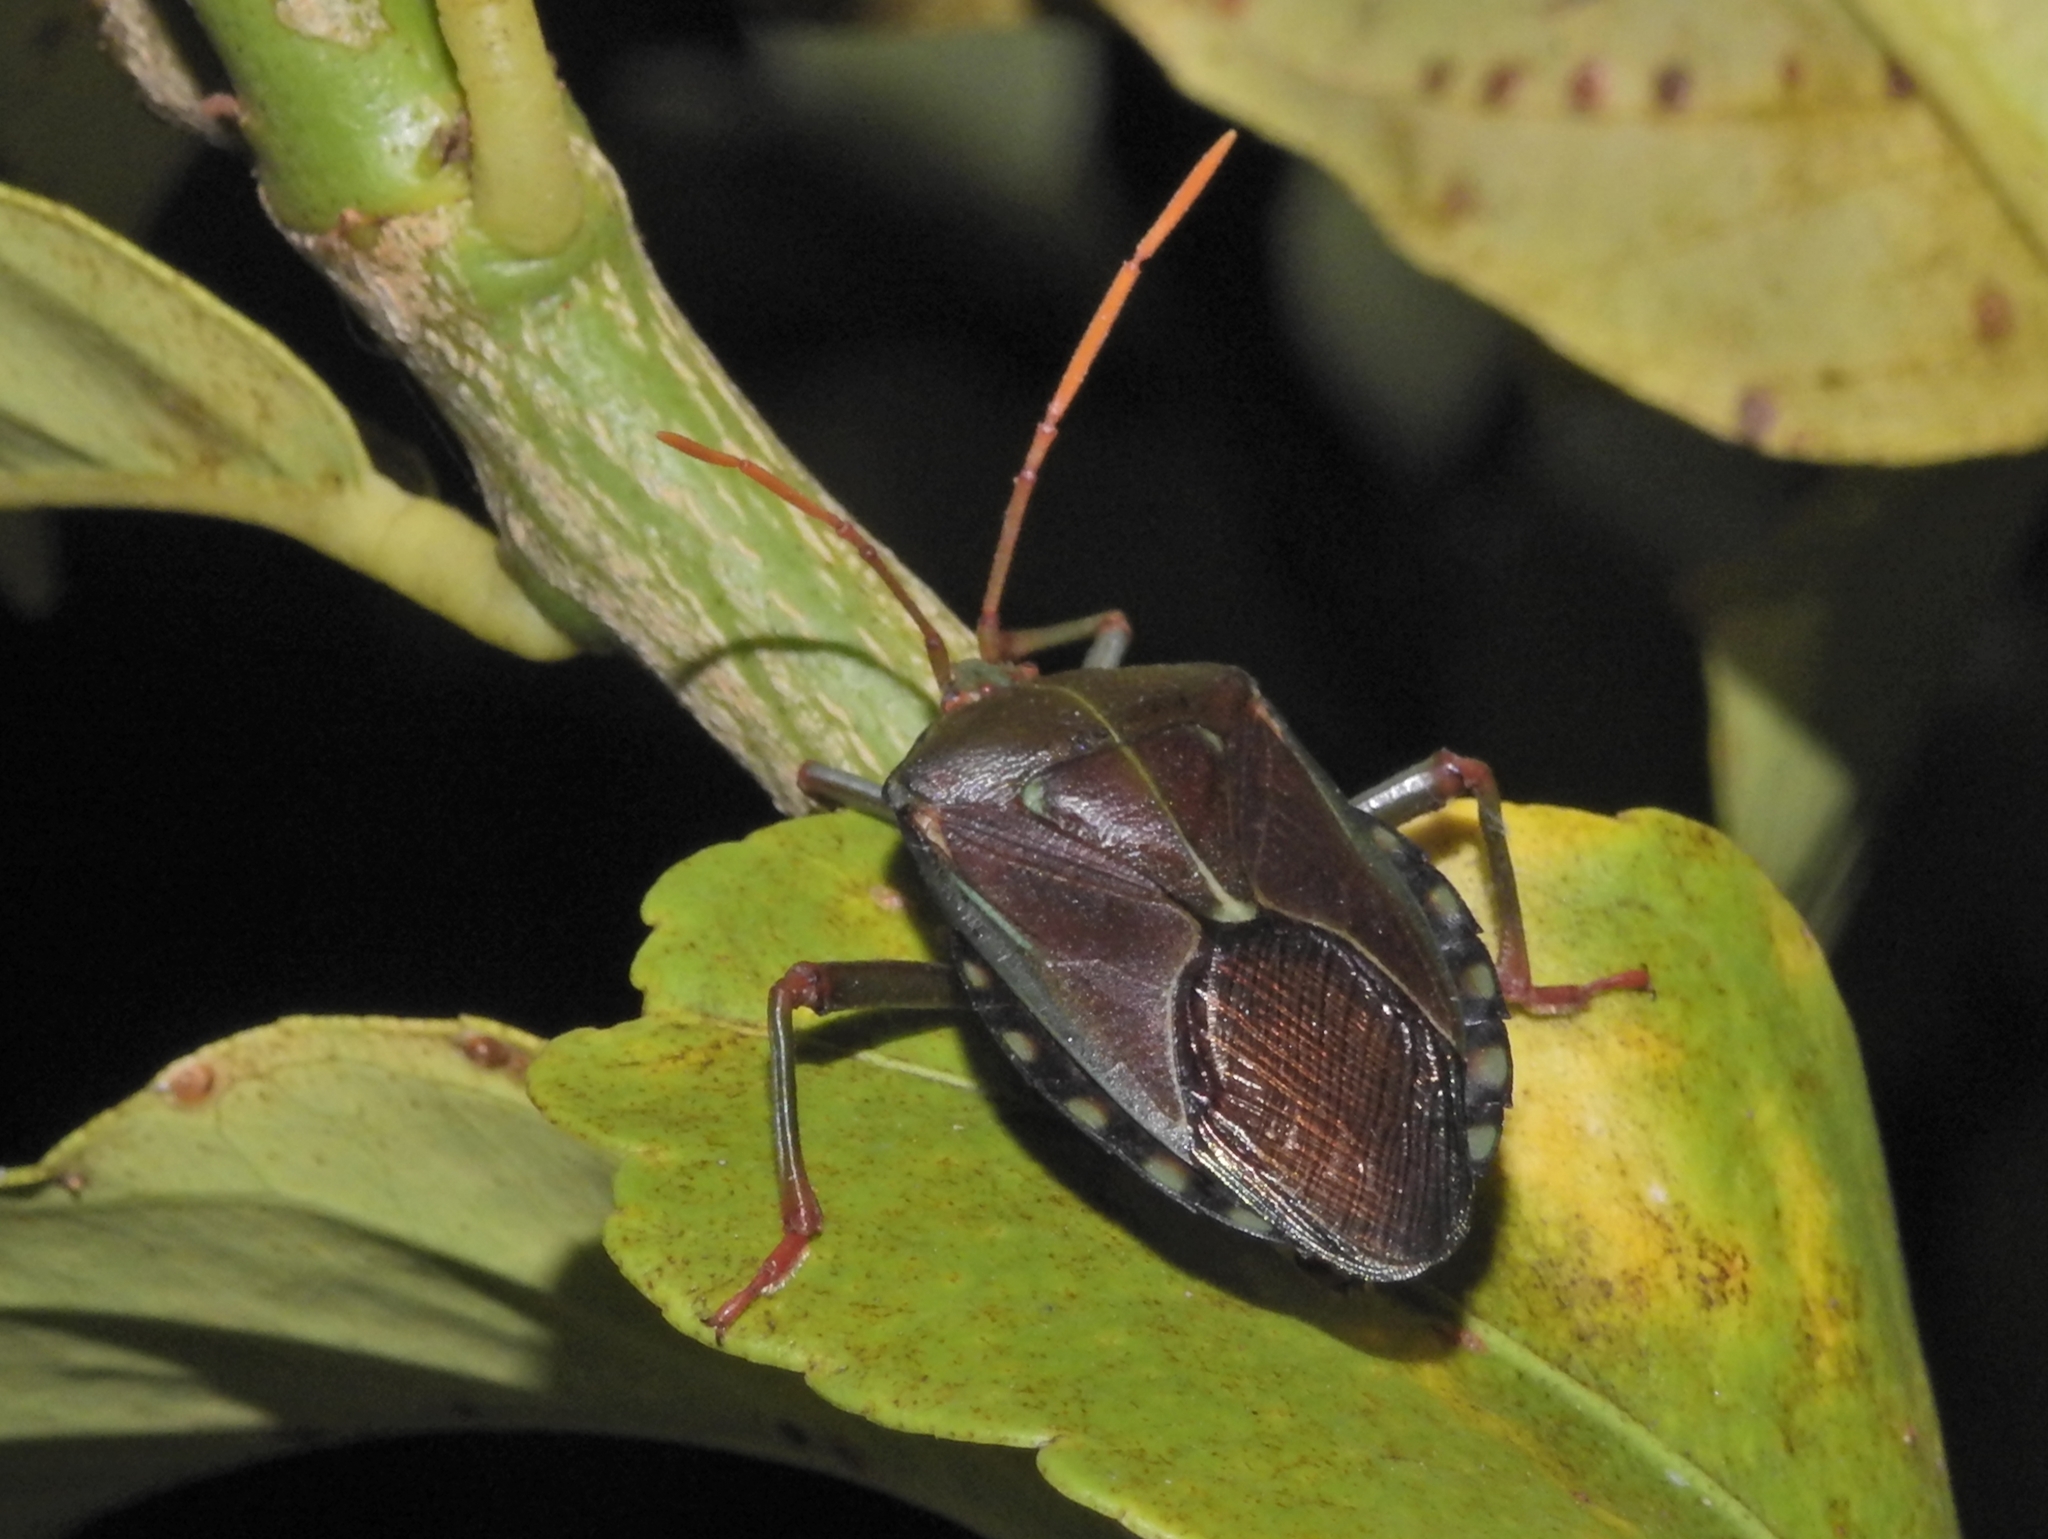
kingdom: Animalia
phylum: Arthropoda
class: Insecta
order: Hemiptera
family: Tessaratomidae
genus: Musgraveia
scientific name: Musgraveia sulciventris
